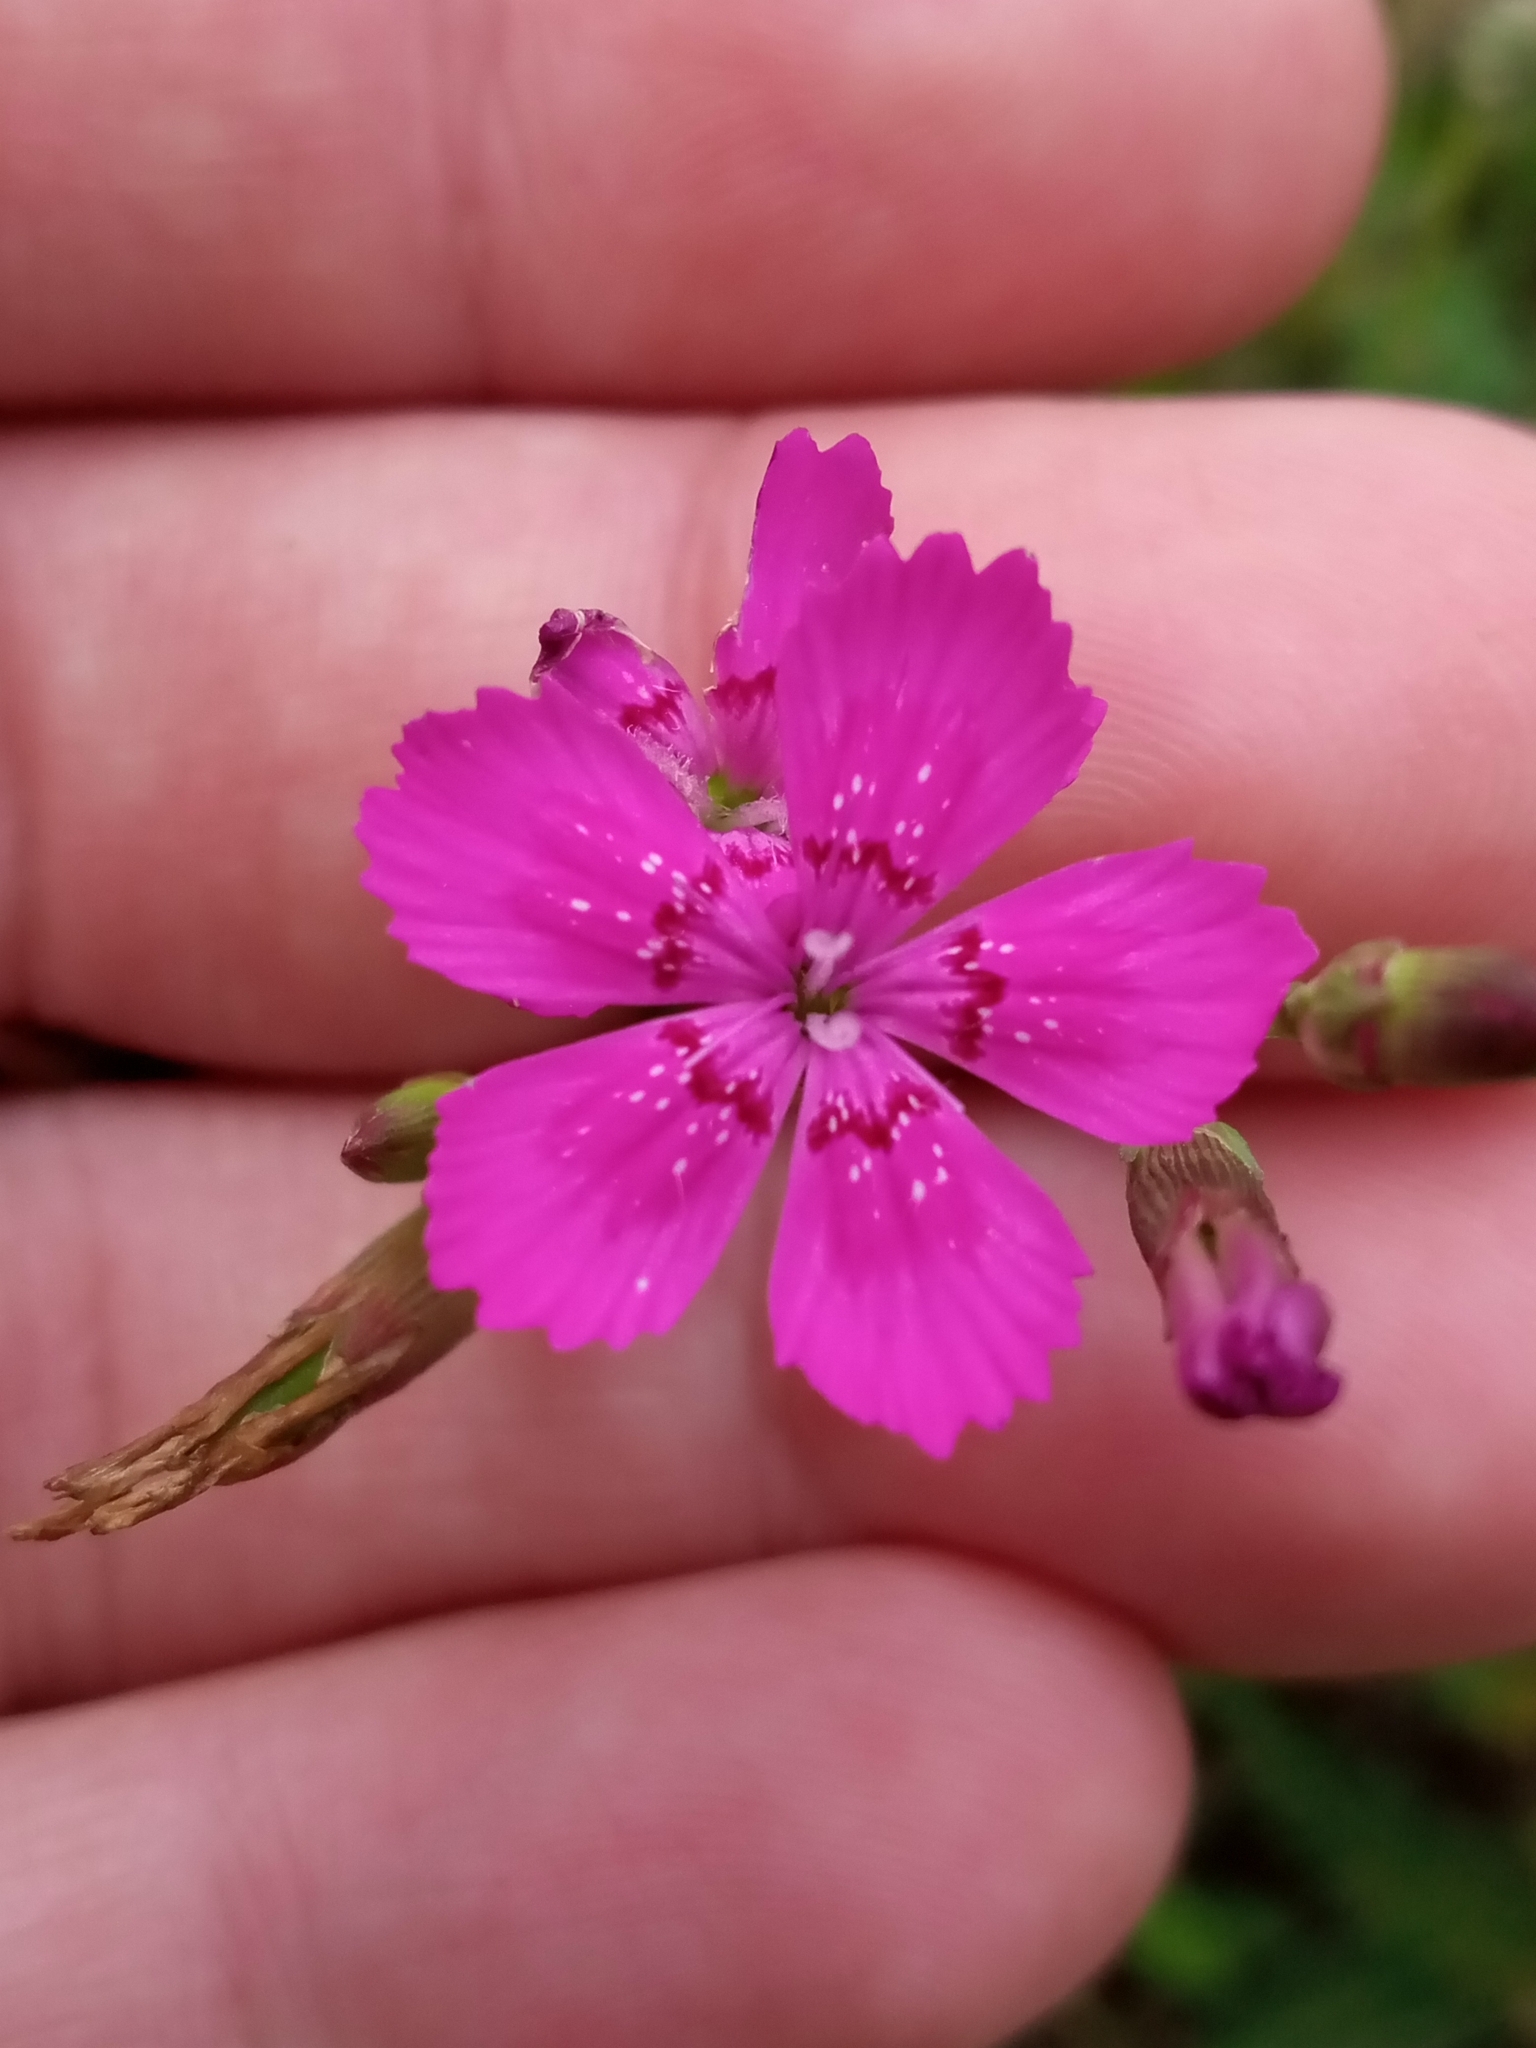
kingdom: Plantae
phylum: Tracheophyta
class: Magnoliopsida
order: Caryophyllales
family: Caryophyllaceae
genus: Dianthus
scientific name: Dianthus deltoides
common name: Maiden pink
